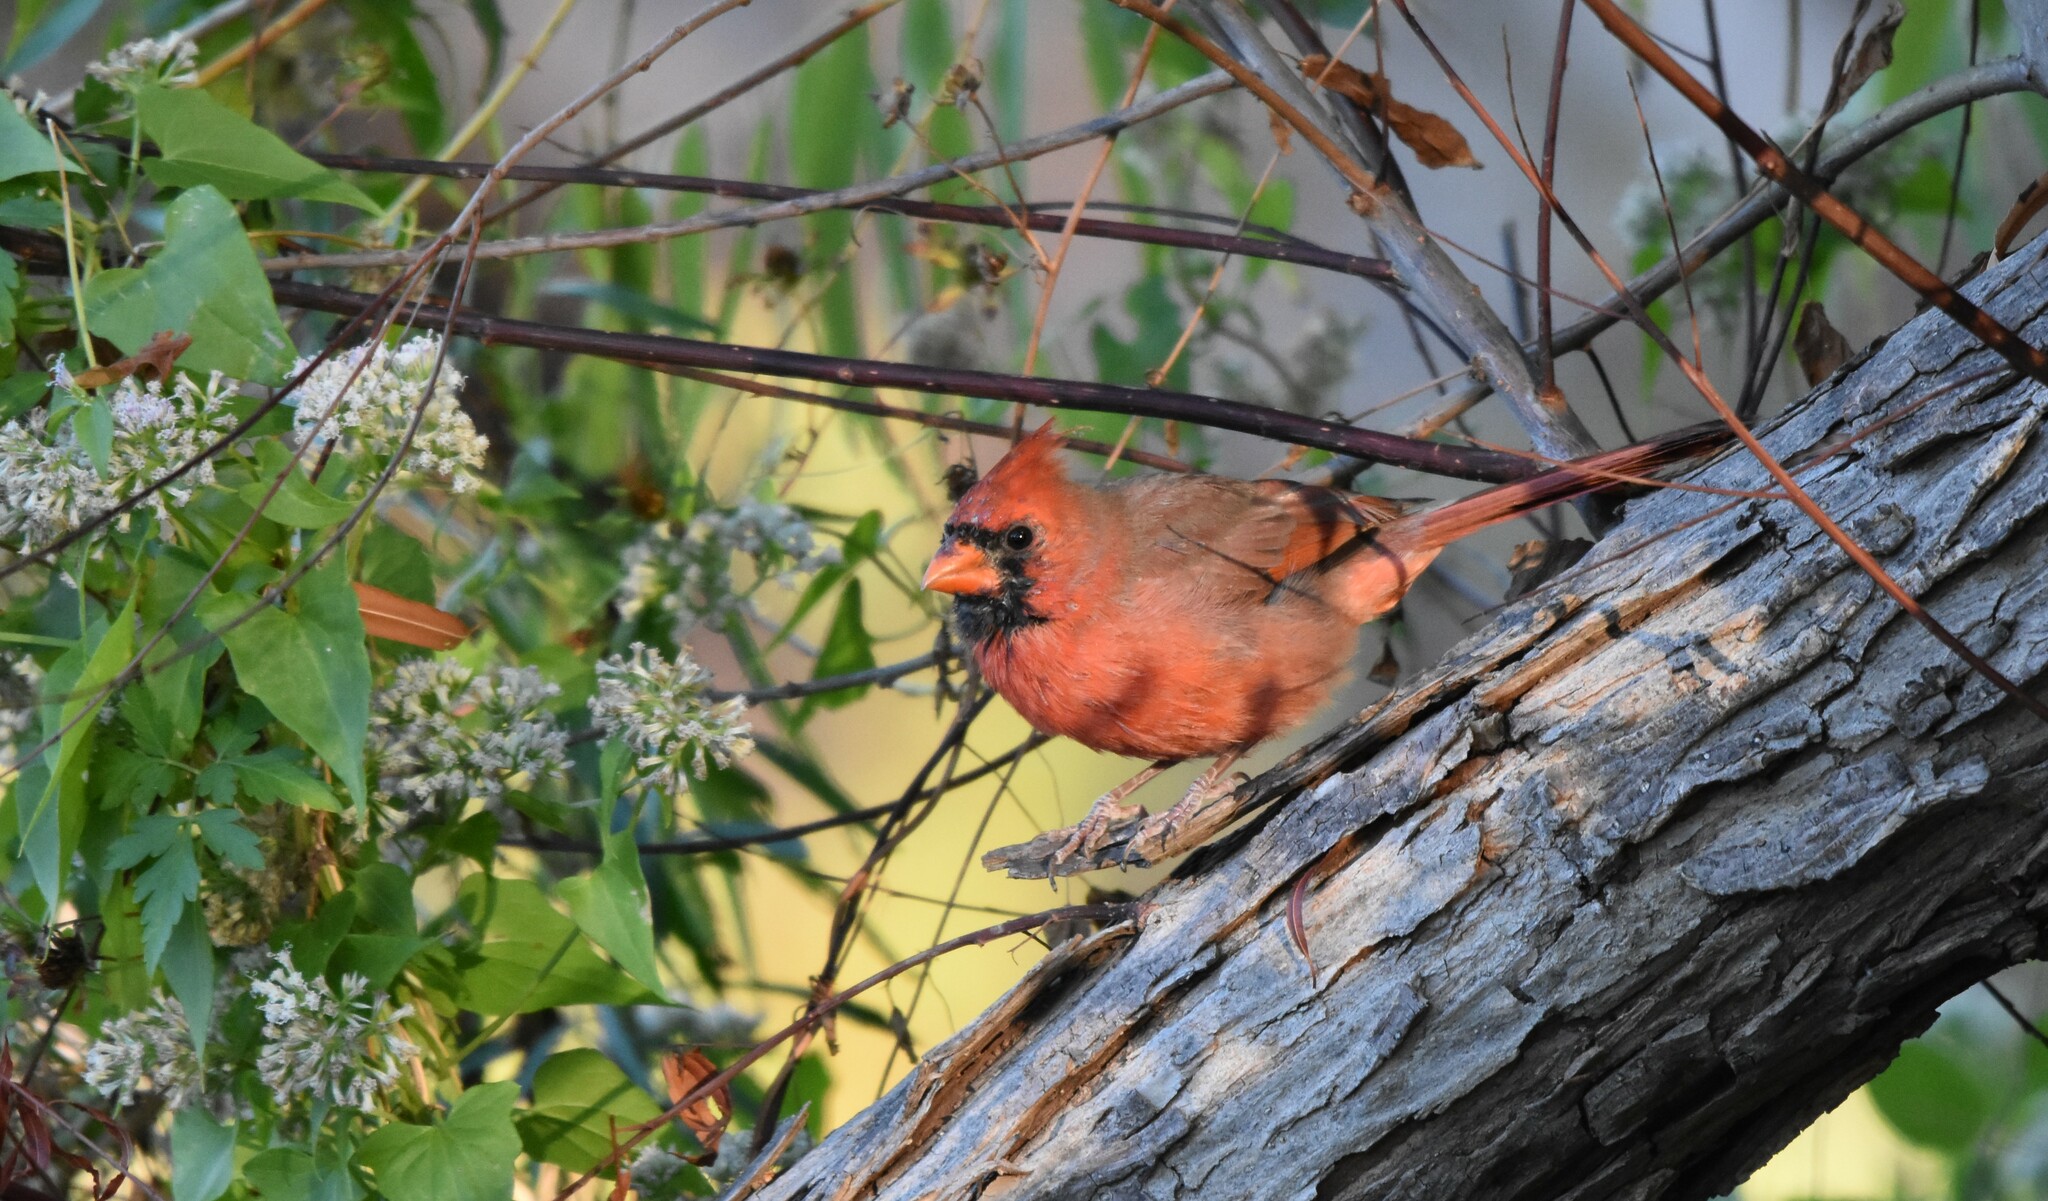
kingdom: Animalia
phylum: Chordata
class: Aves
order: Passeriformes
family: Cardinalidae
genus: Cardinalis
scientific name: Cardinalis cardinalis
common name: Northern cardinal
